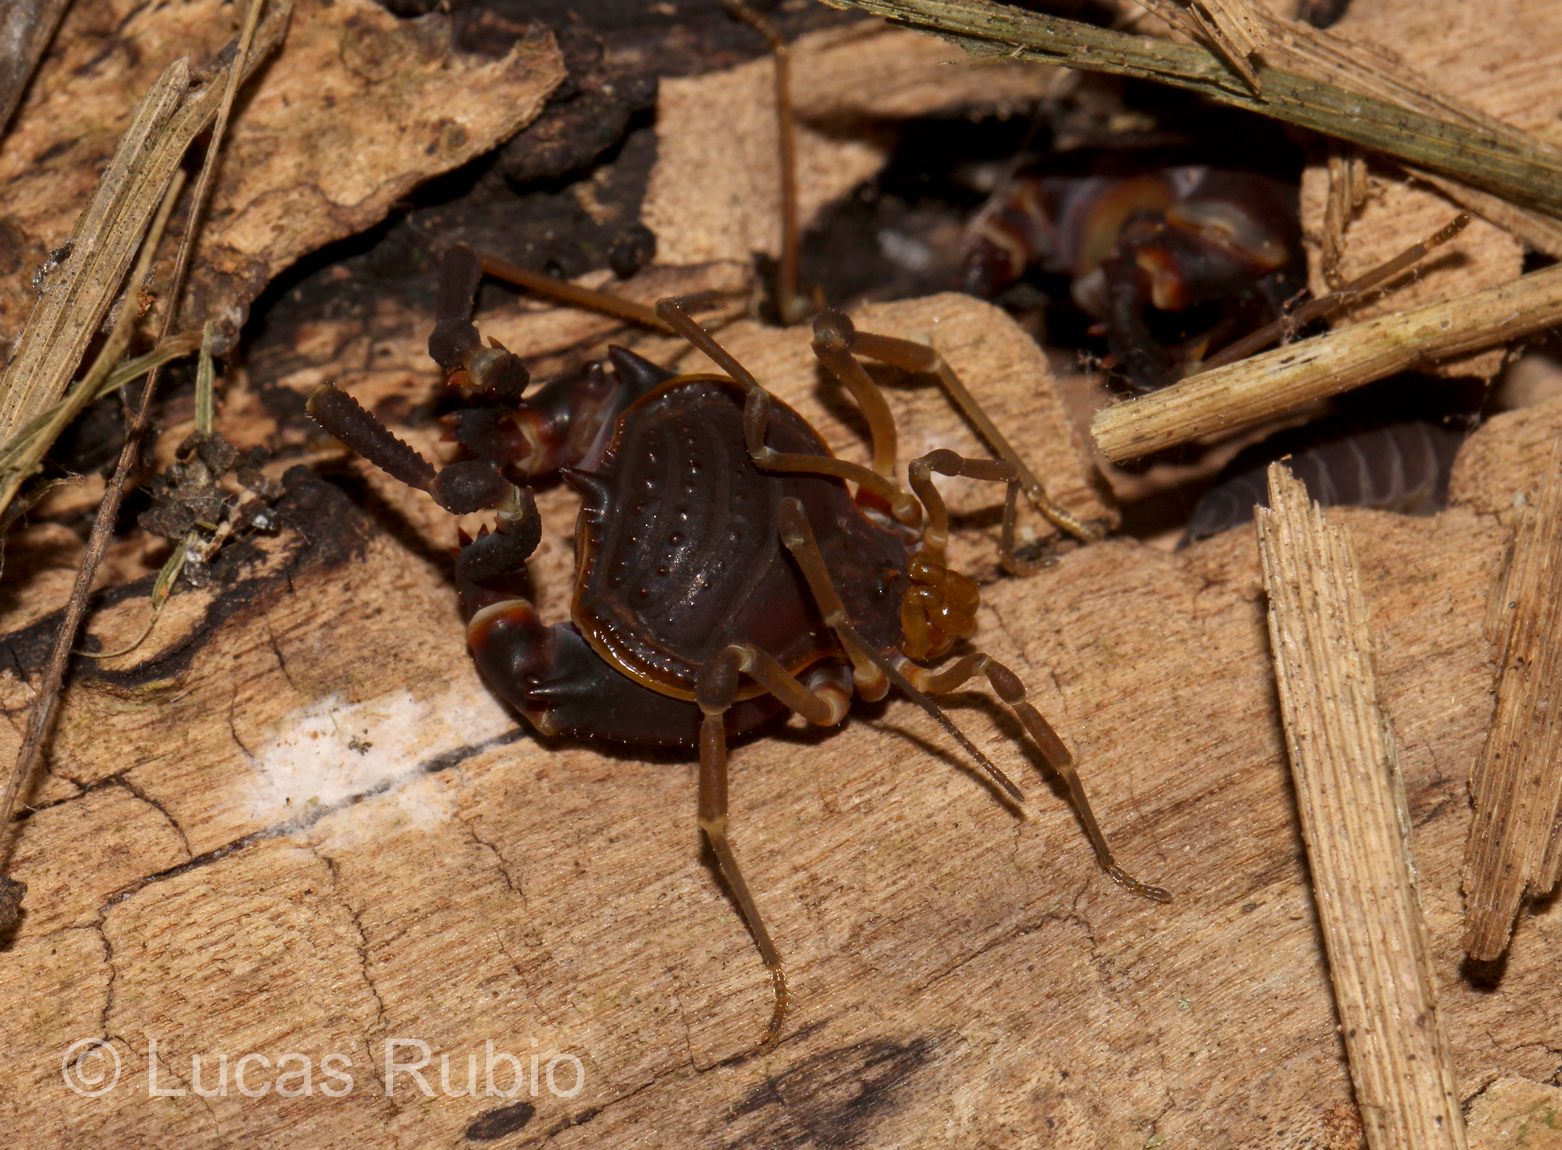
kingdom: Animalia
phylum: Arthropoda
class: Arachnida
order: Opiliones
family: Gonyleptidae
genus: Acanthopachylus
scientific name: Acanthopachylus robustus
